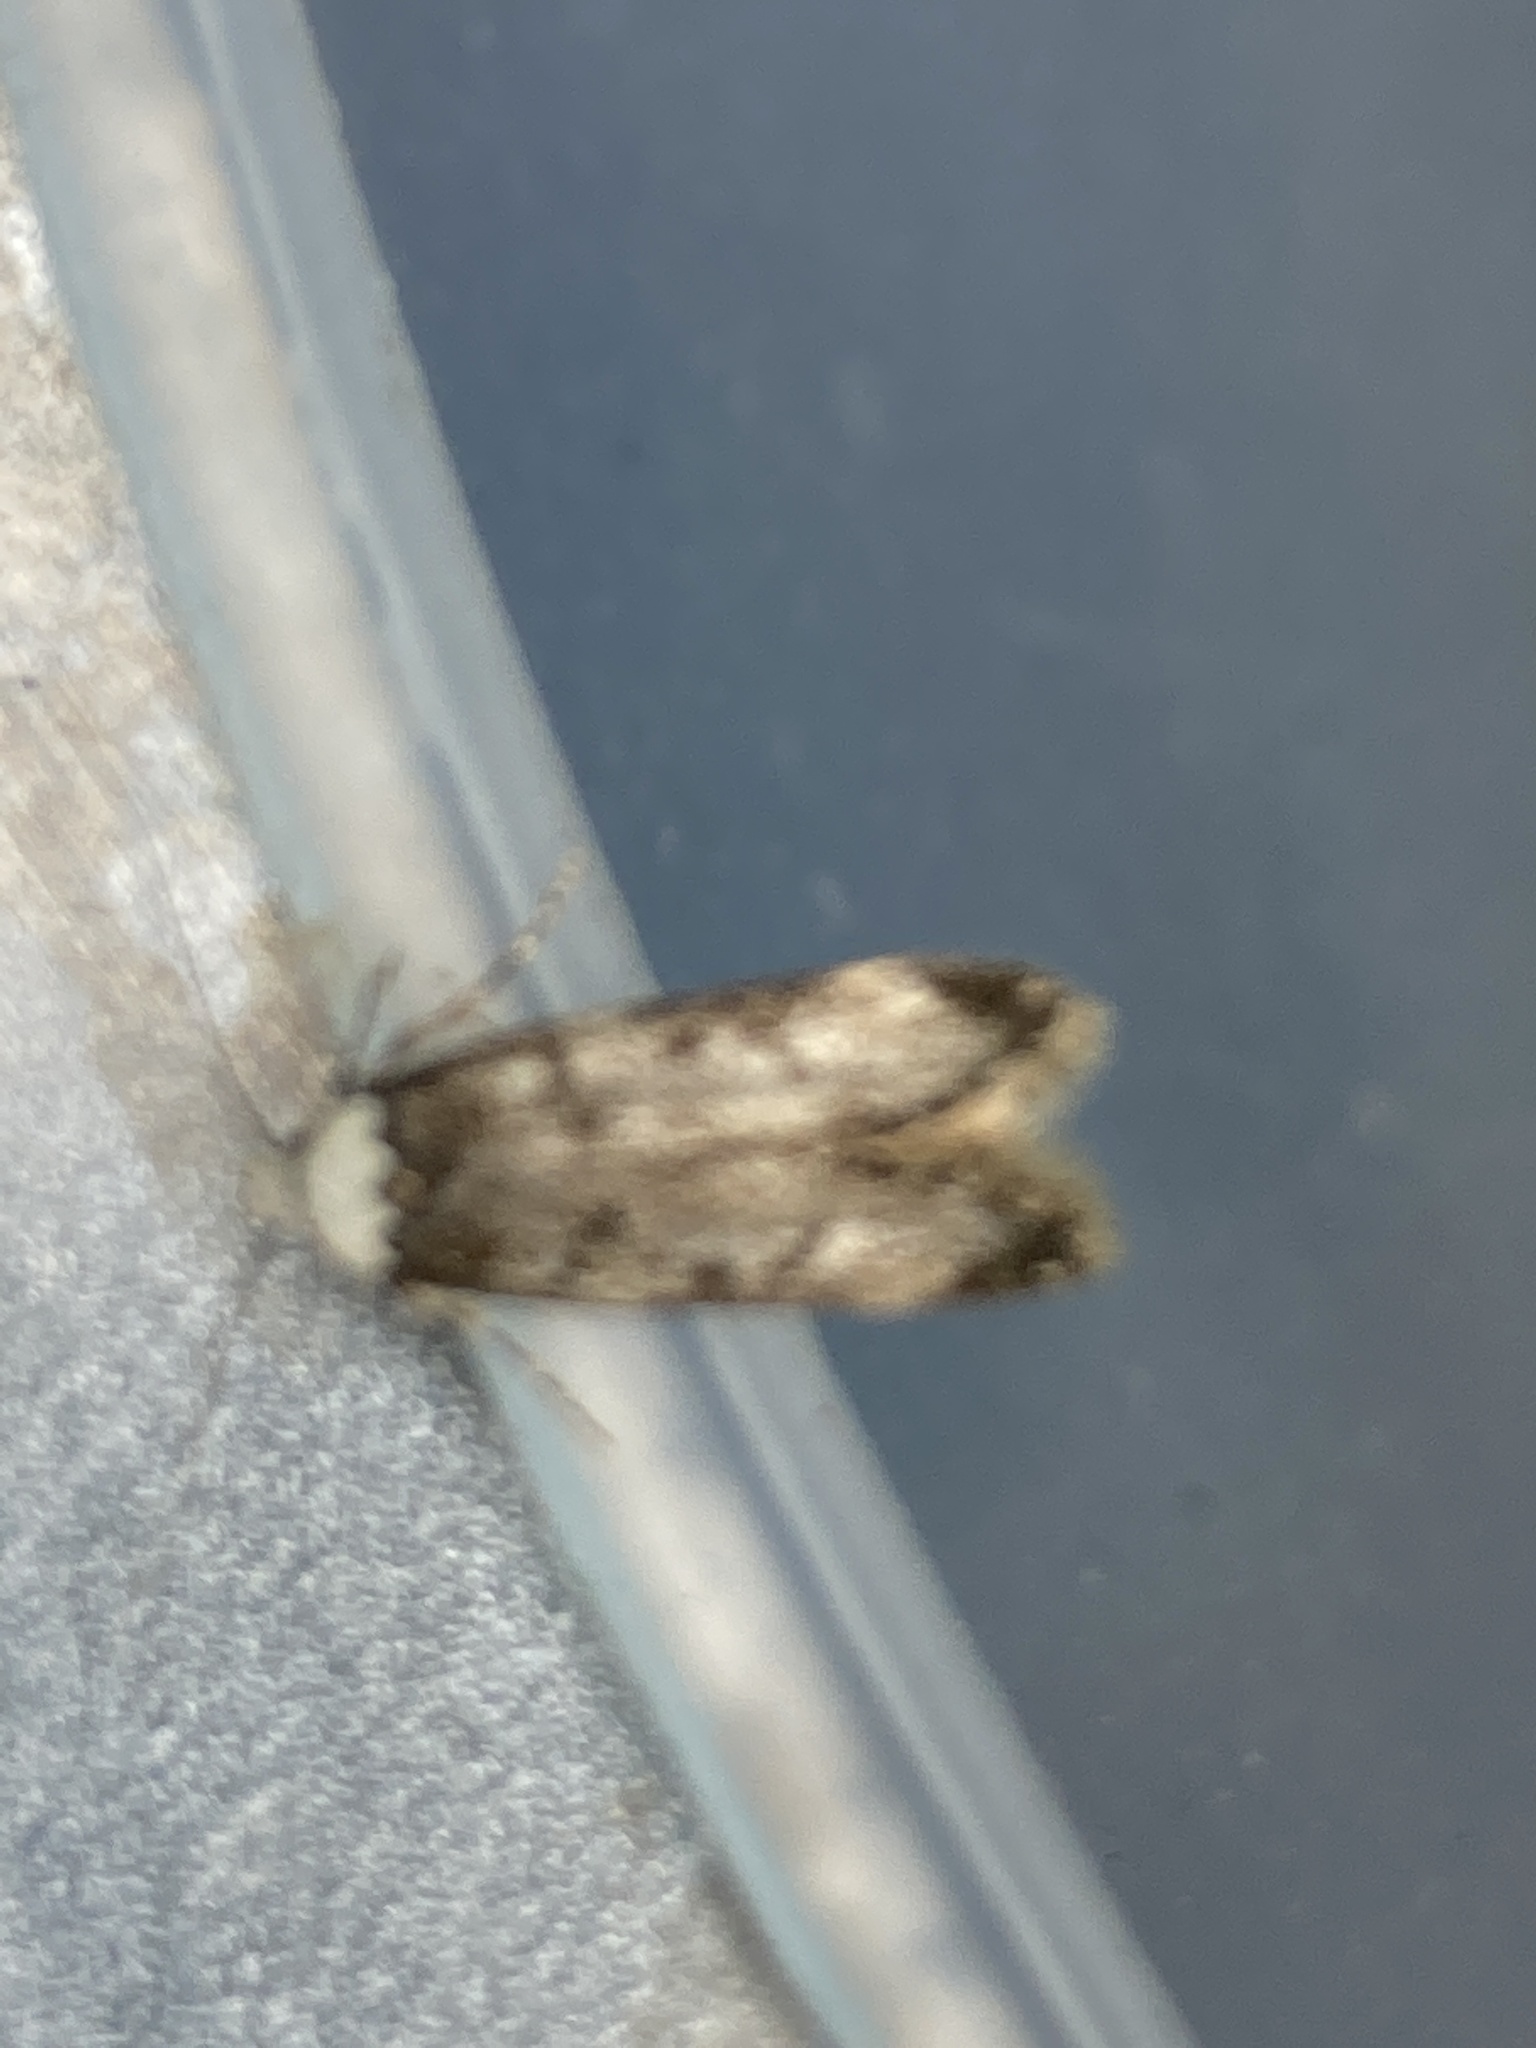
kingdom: Animalia
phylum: Arthropoda
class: Insecta
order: Lepidoptera
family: Oecophoridae
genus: Endrosis
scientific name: Endrosis sarcitrella
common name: White-shouldered house moth
